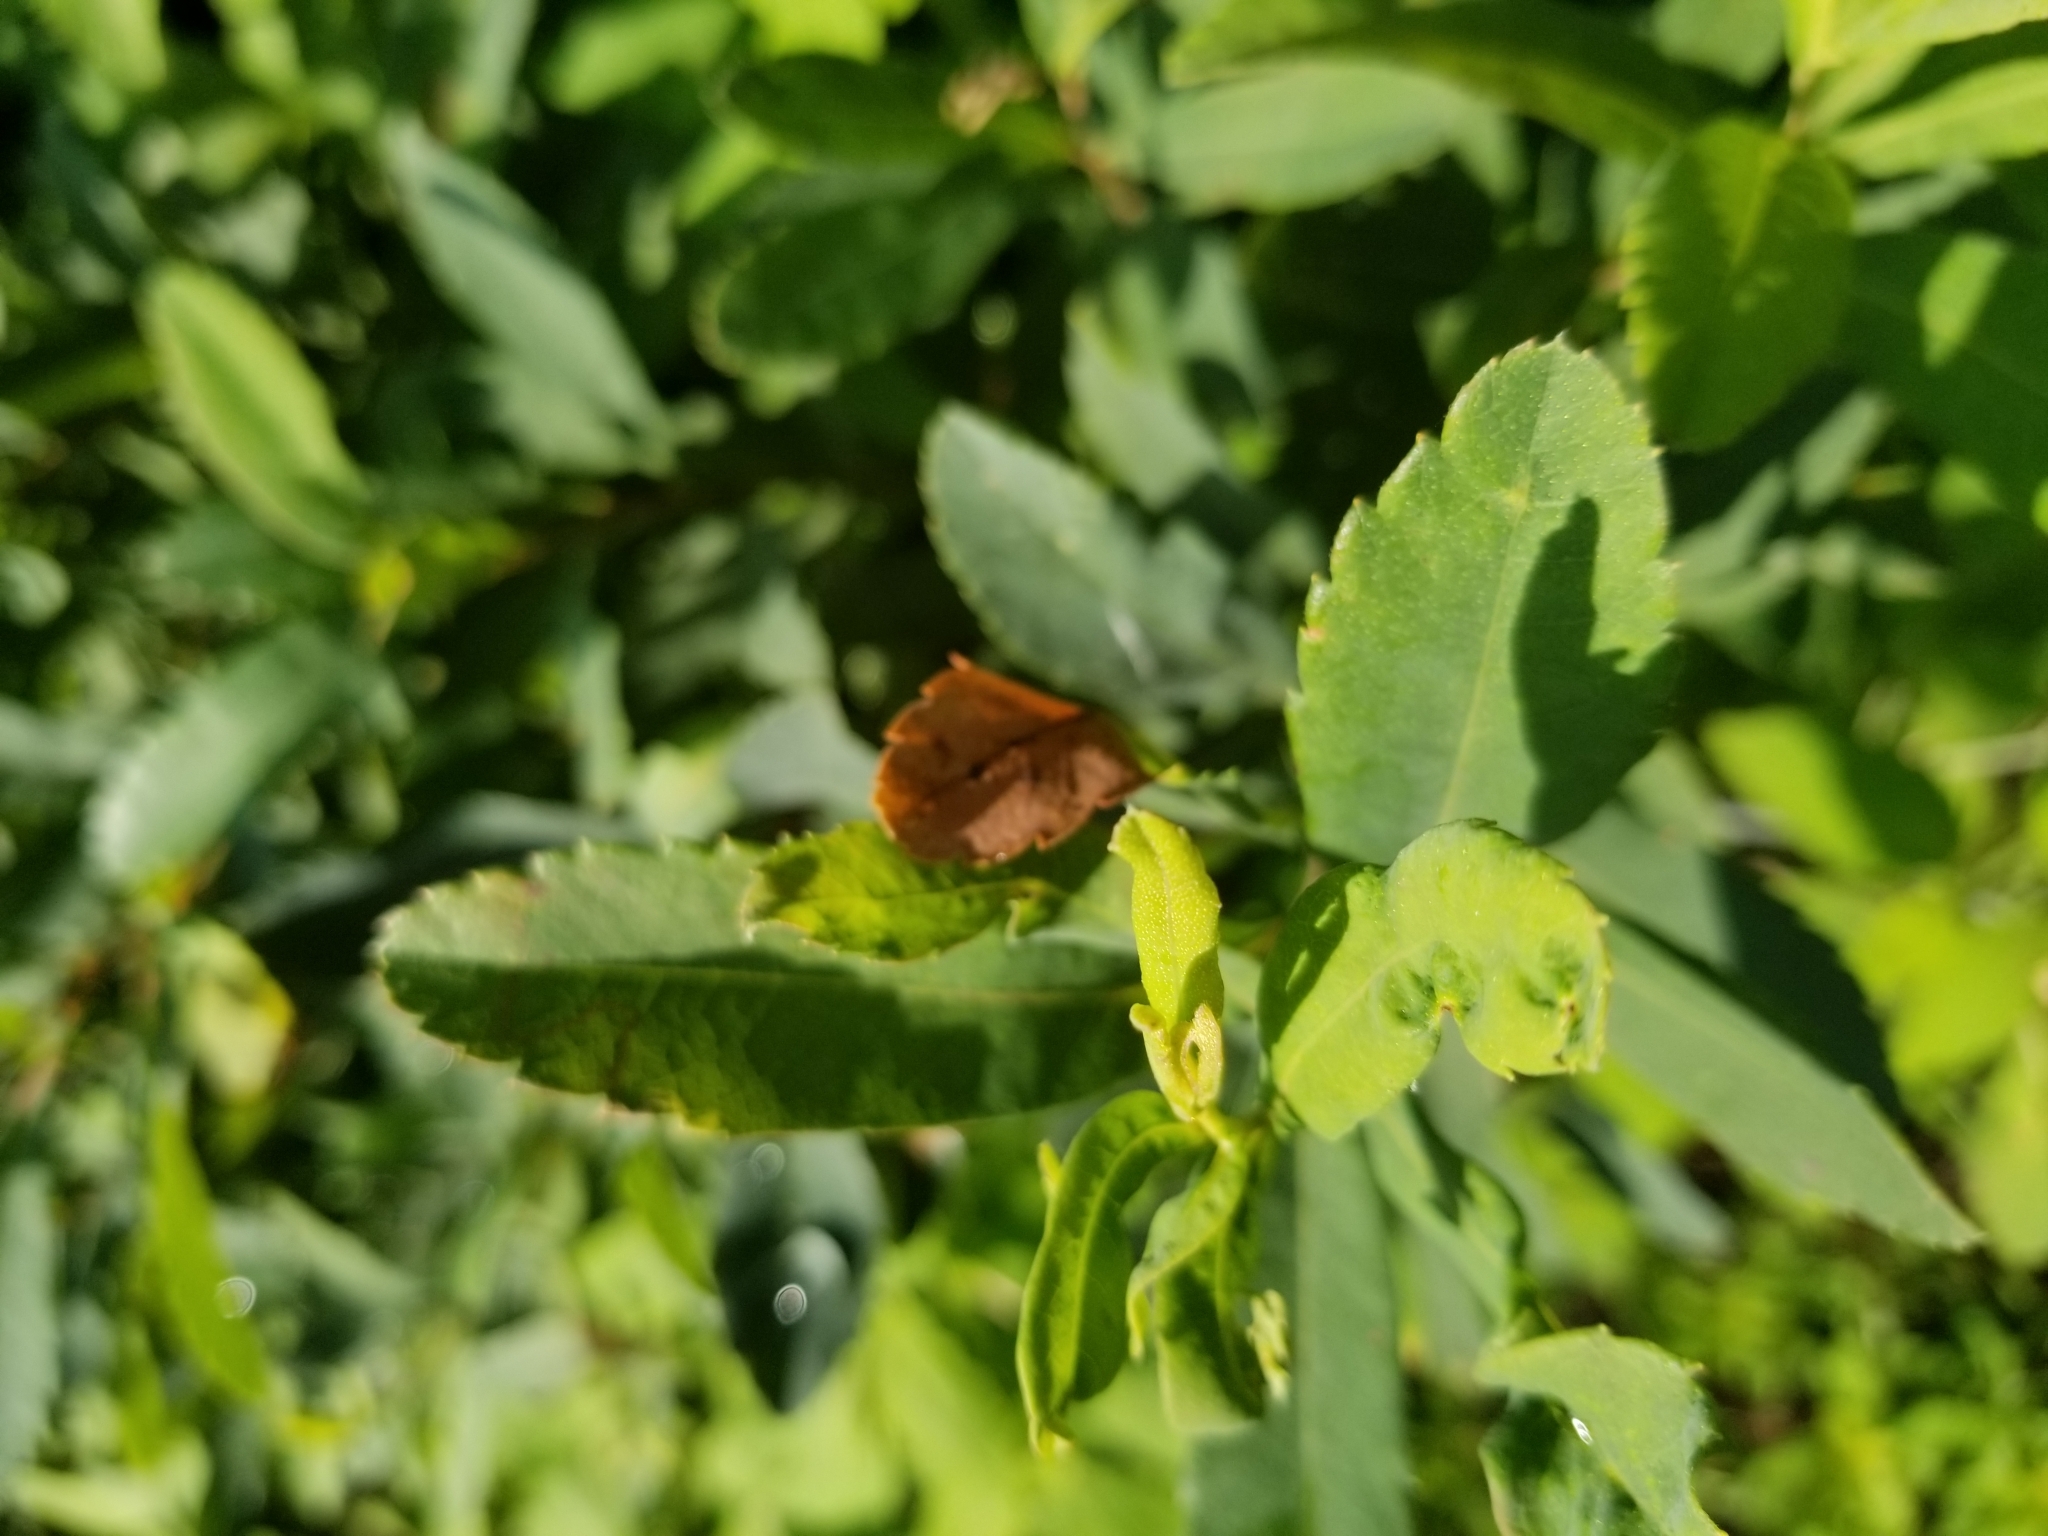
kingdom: Plantae
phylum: Tracheophyta
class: Magnoliopsida
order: Fagales
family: Myricaceae
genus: Myrica
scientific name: Myrica gale
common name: Sweet gale
